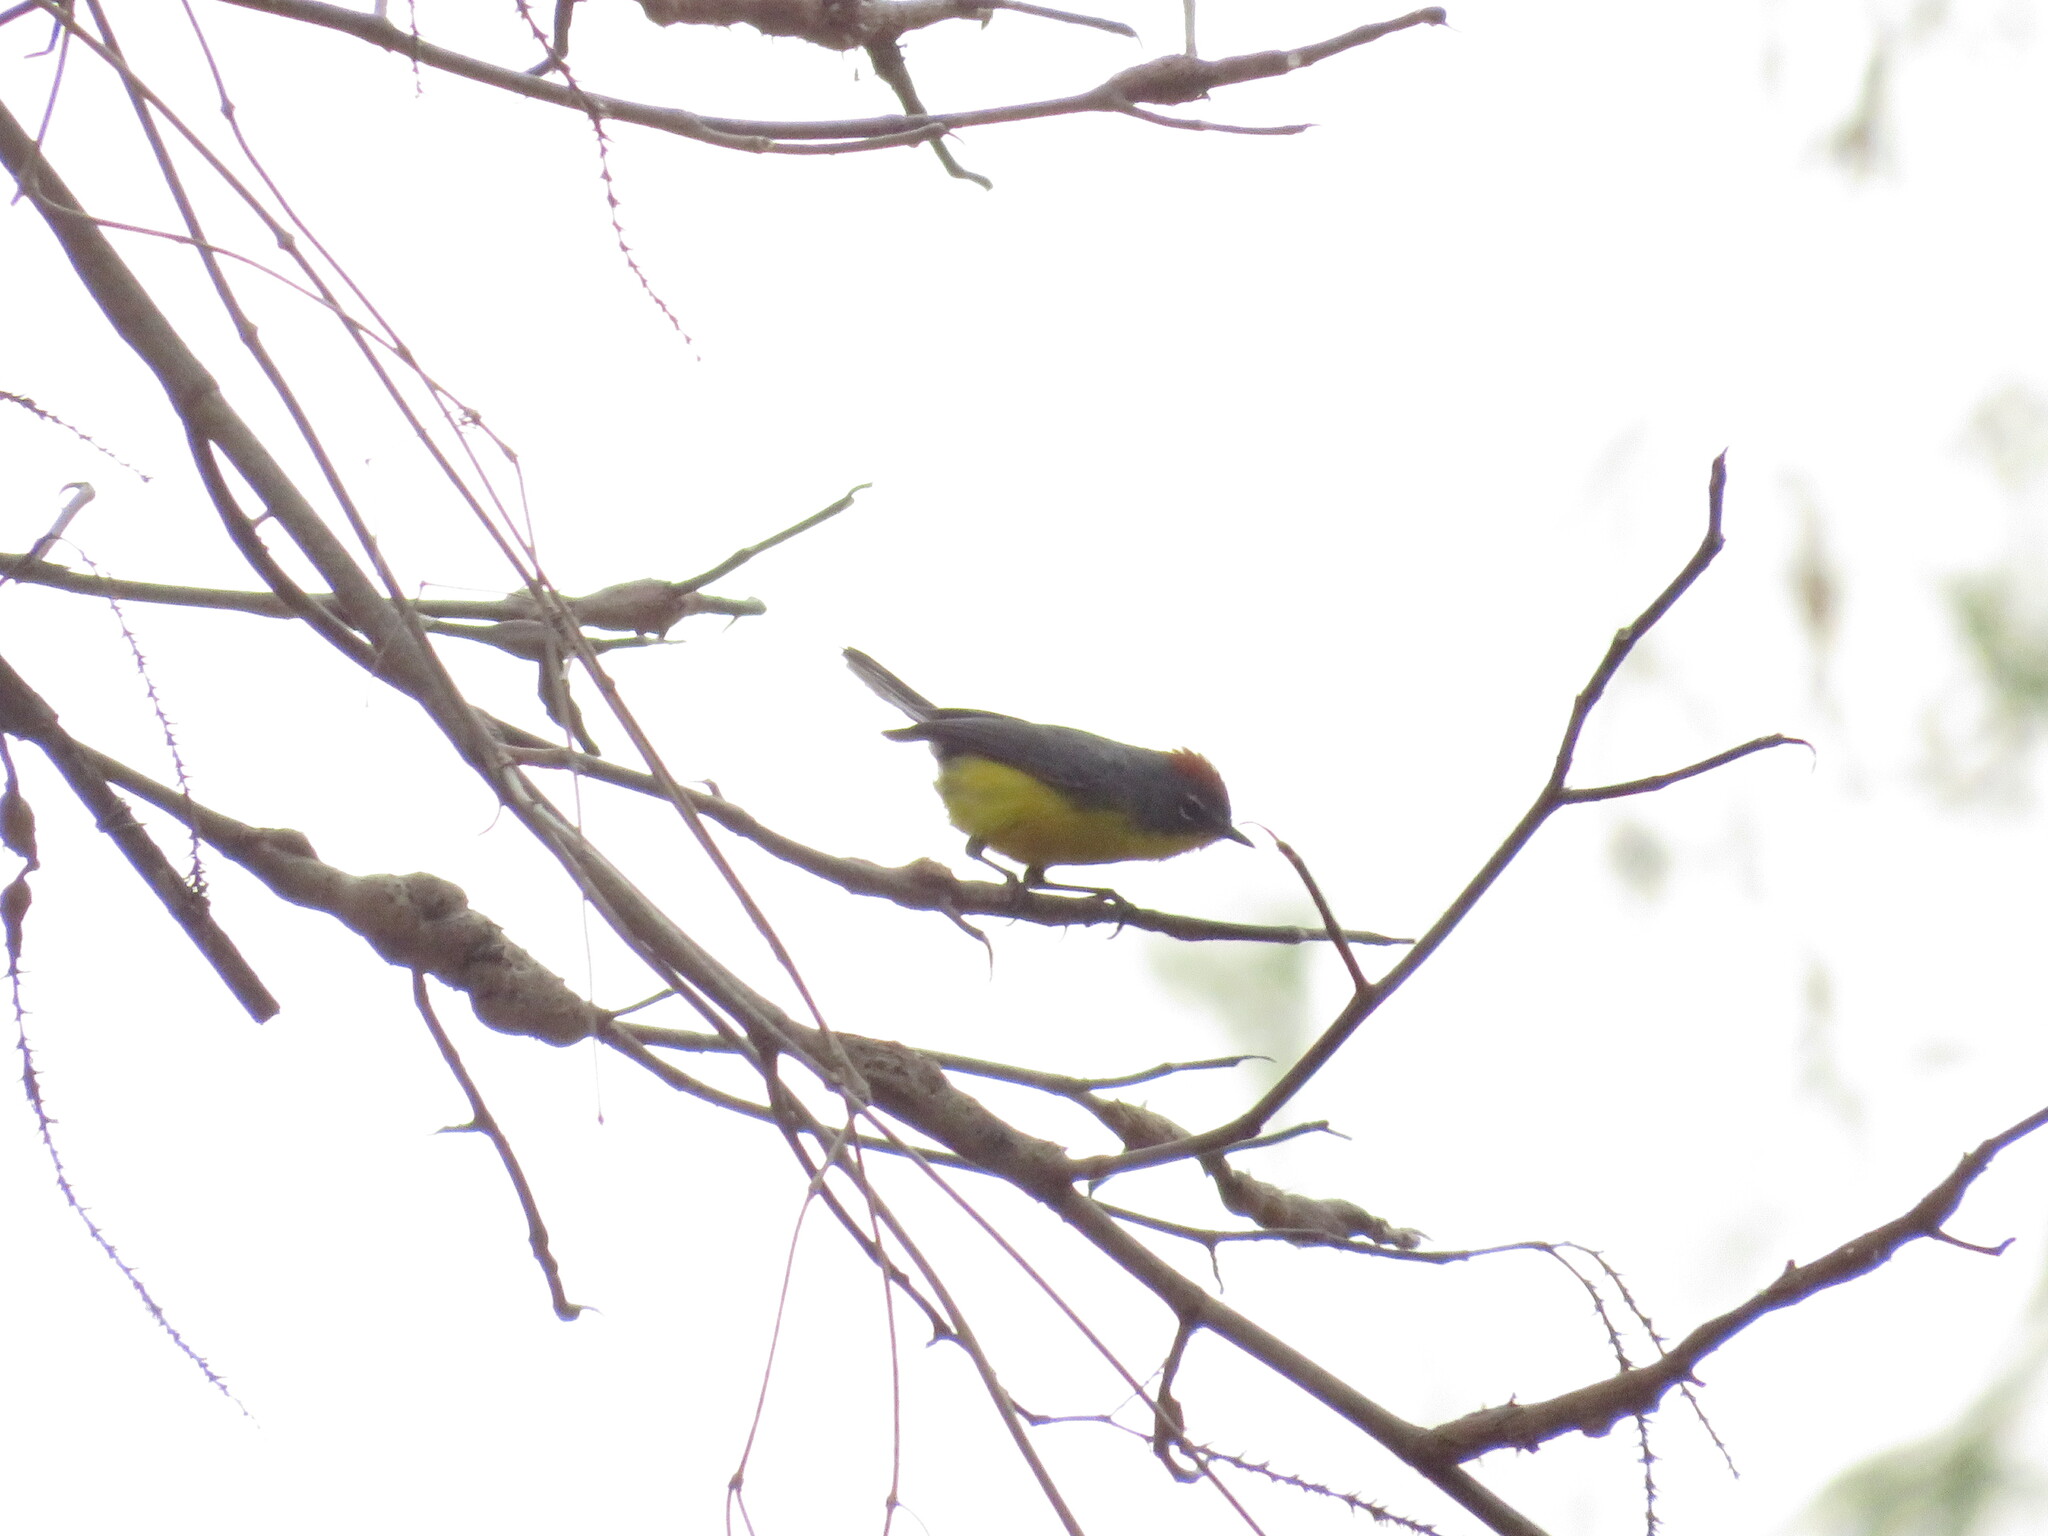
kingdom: Animalia
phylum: Chordata
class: Aves
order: Passeriformes
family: Parulidae
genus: Myioborus
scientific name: Myioborus brunniceps
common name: Brown-capped whitestart
